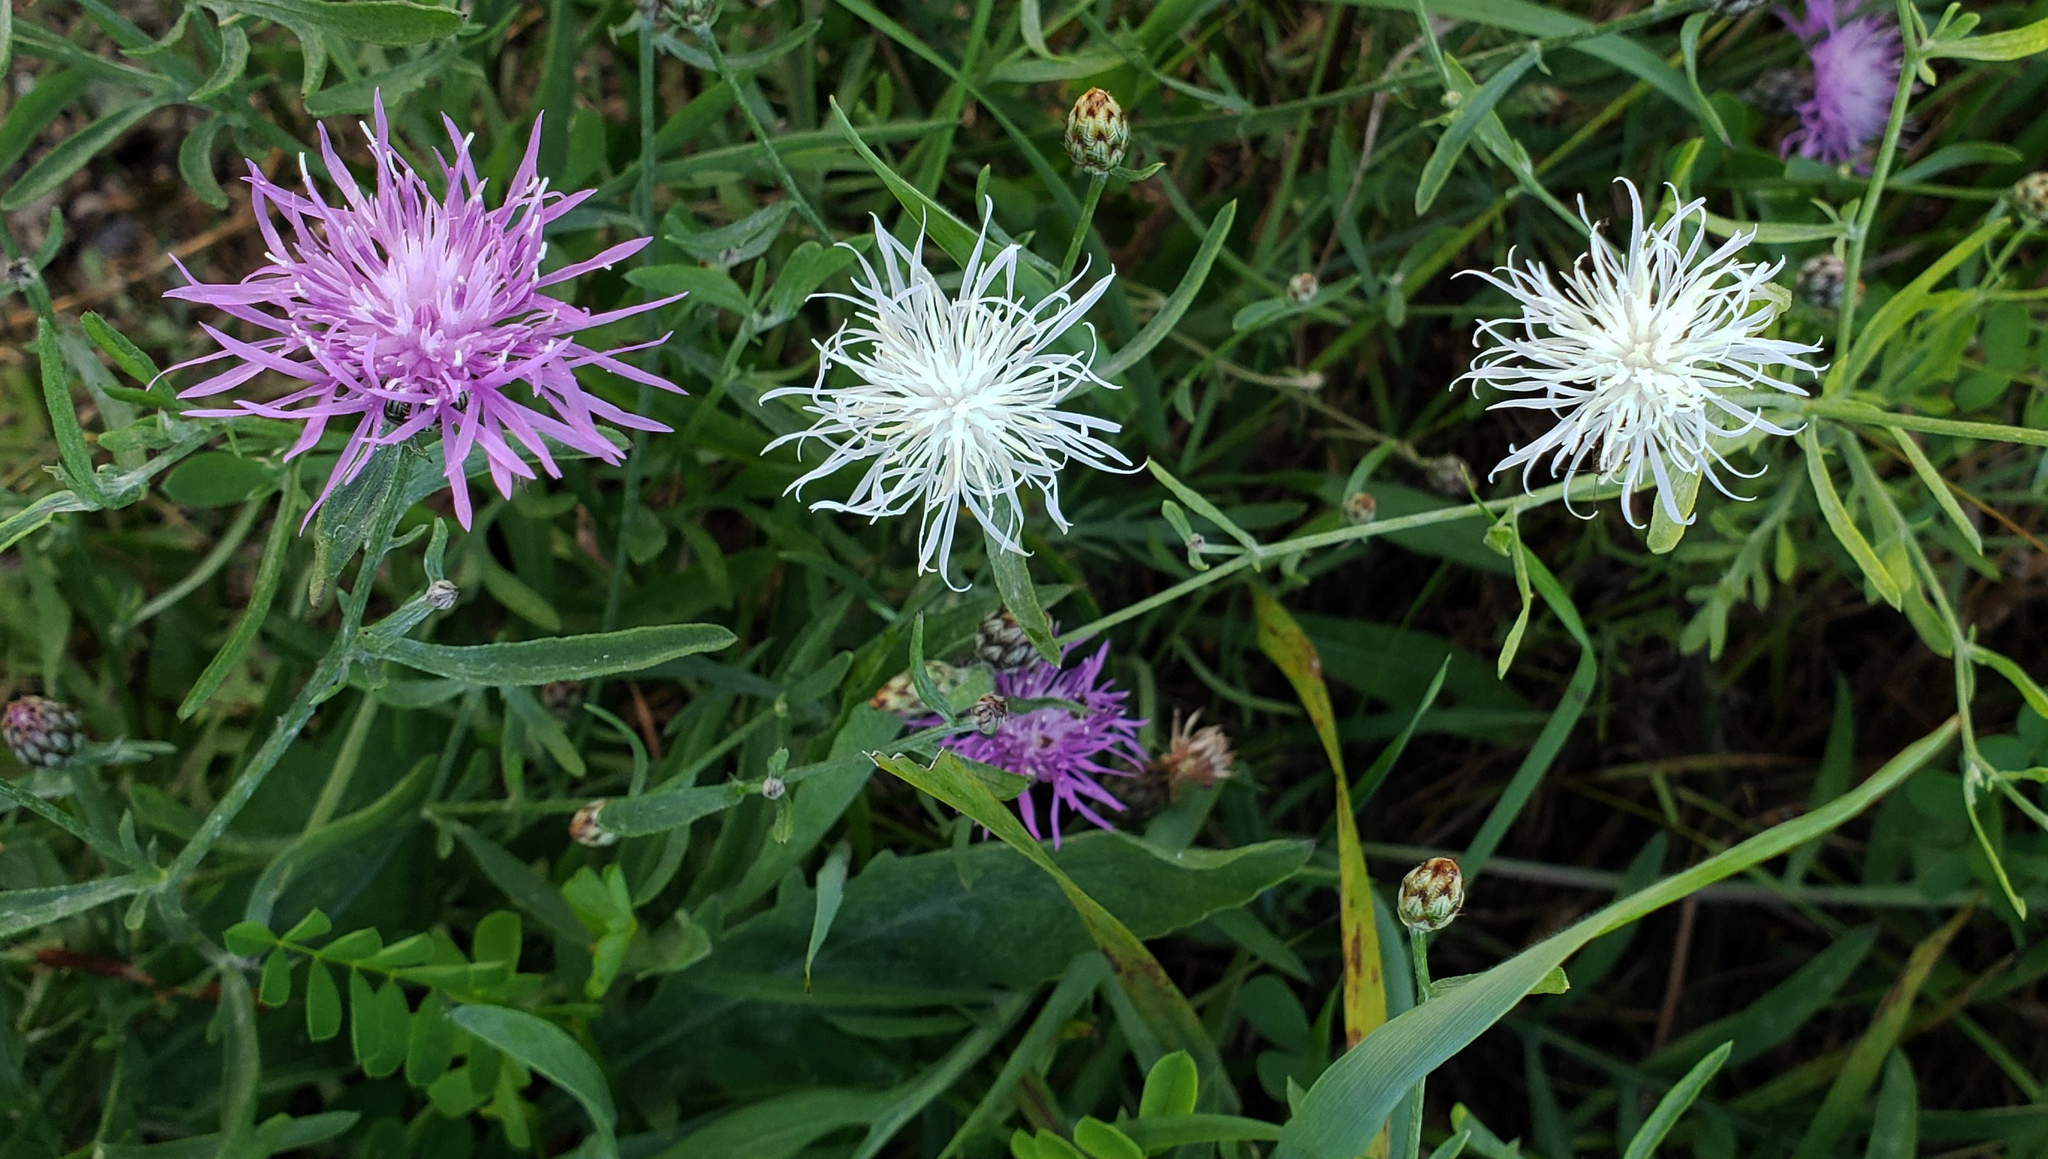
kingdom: Plantae
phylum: Tracheophyta
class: Magnoliopsida
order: Asterales
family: Asteraceae
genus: Centaurea
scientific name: Centaurea stoebe
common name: Spotted knapweed
